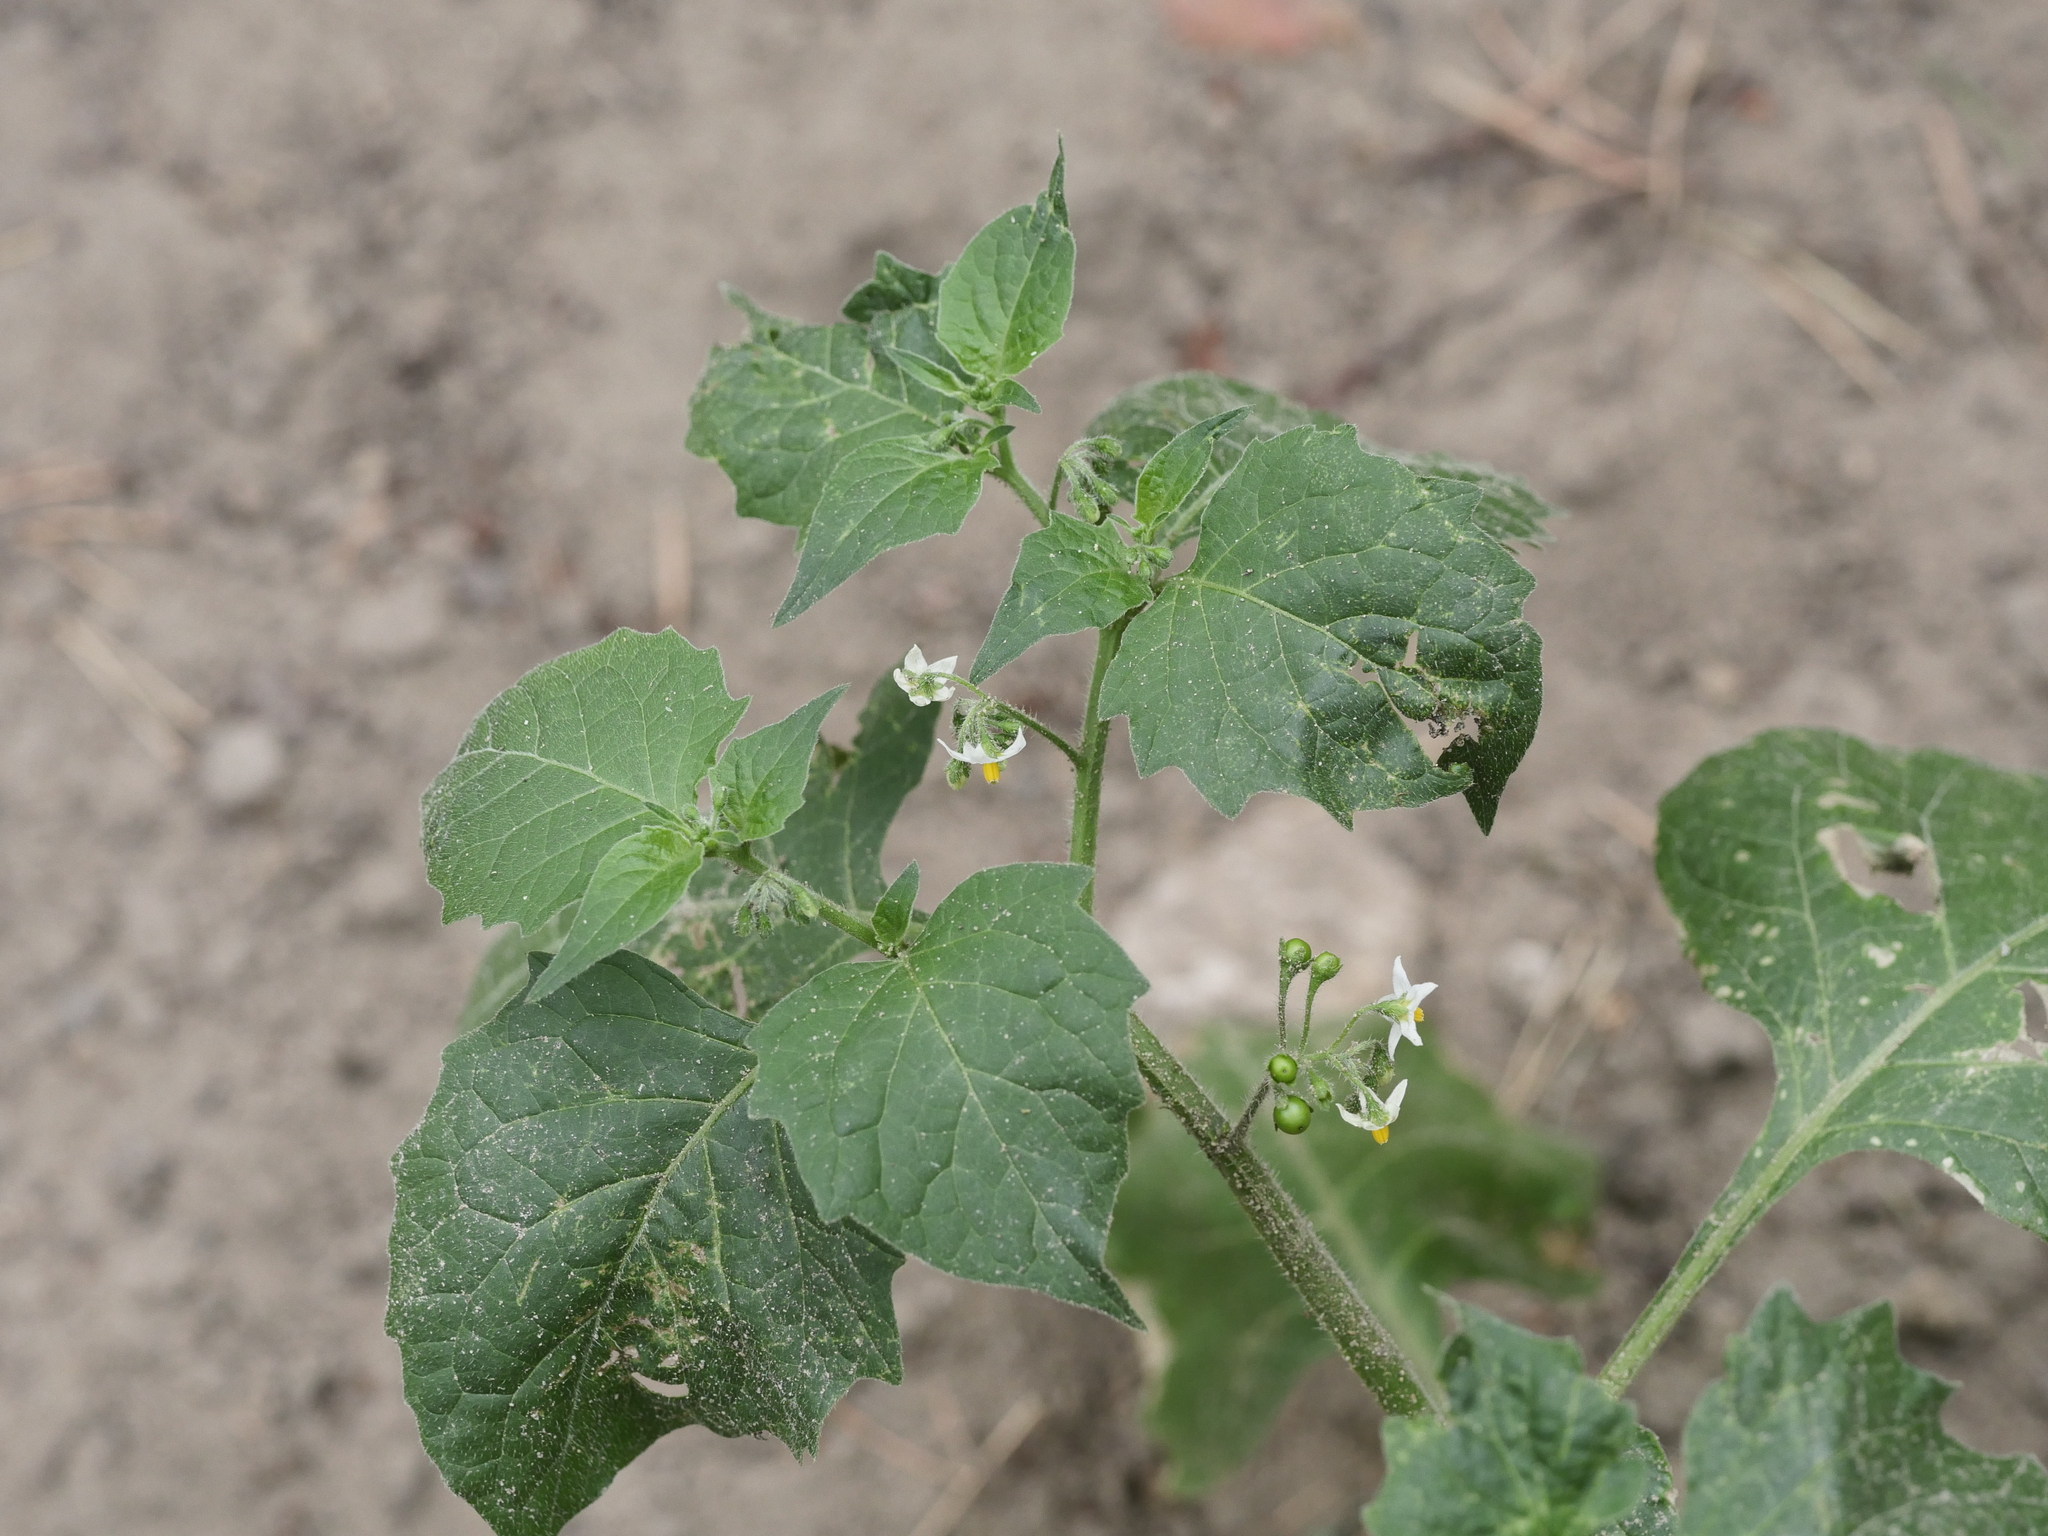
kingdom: Plantae
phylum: Tracheophyta
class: Magnoliopsida
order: Solanales
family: Solanaceae
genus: Solanum
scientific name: Solanum nigrum
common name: Black nightshade
